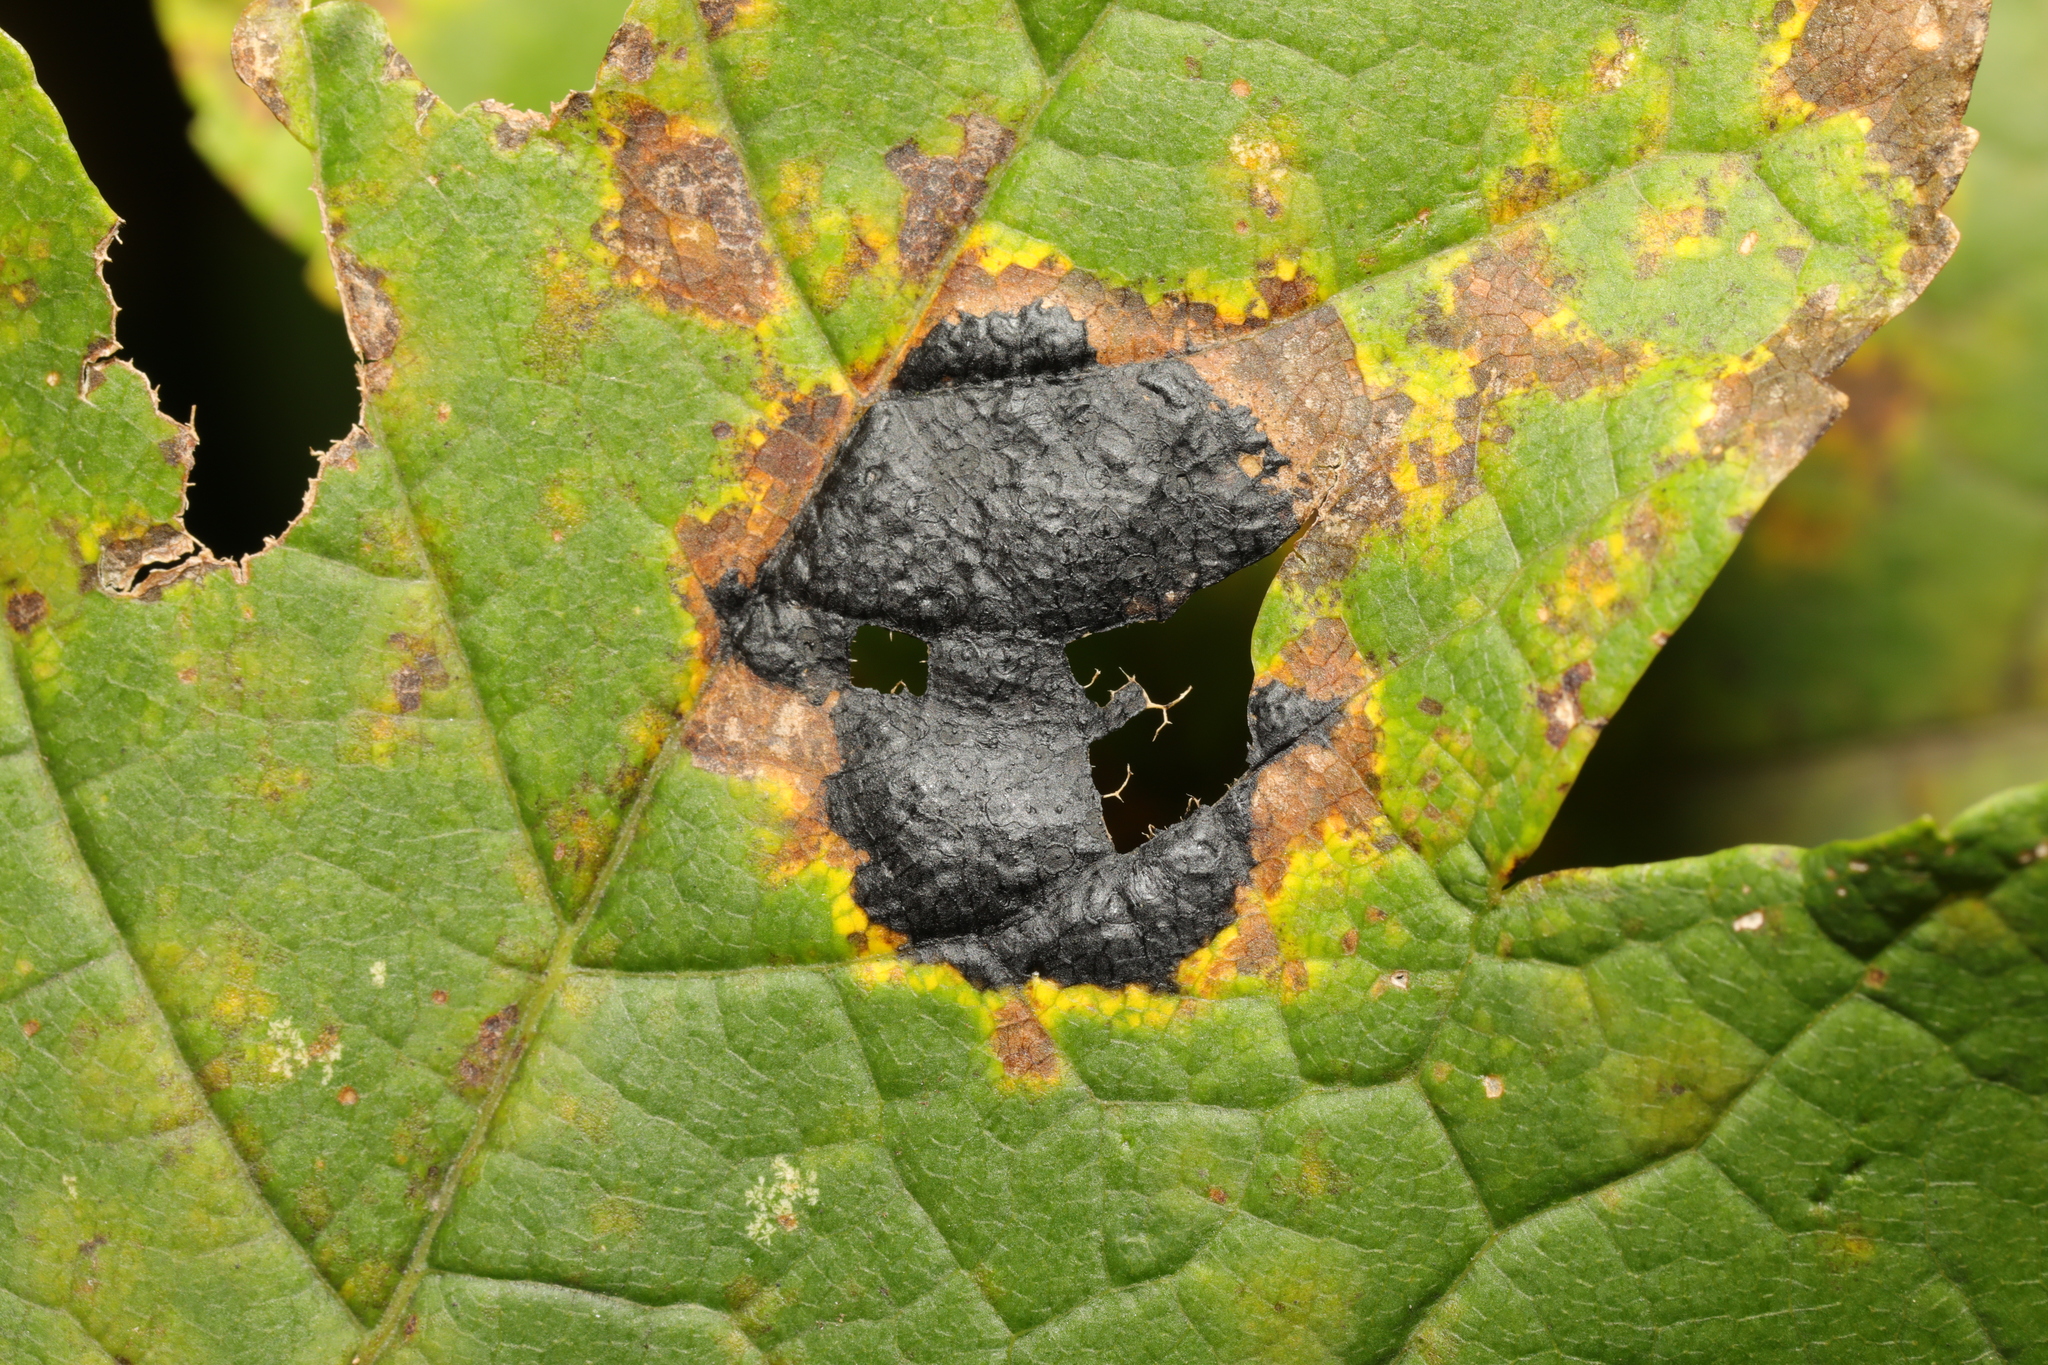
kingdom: Fungi
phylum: Ascomycota
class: Leotiomycetes
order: Rhytismatales
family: Rhytismataceae
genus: Rhytisma
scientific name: Rhytisma acerinum
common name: European tar spot
